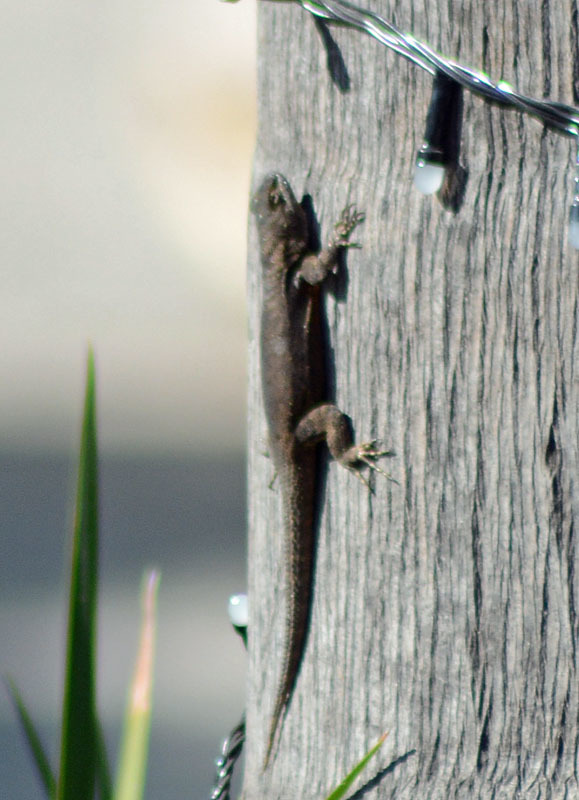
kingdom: Animalia
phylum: Chordata
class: Squamata
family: Phrynosomatidae
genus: Sceloporus
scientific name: Sceloporus grammicus
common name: Mesquite lizard
